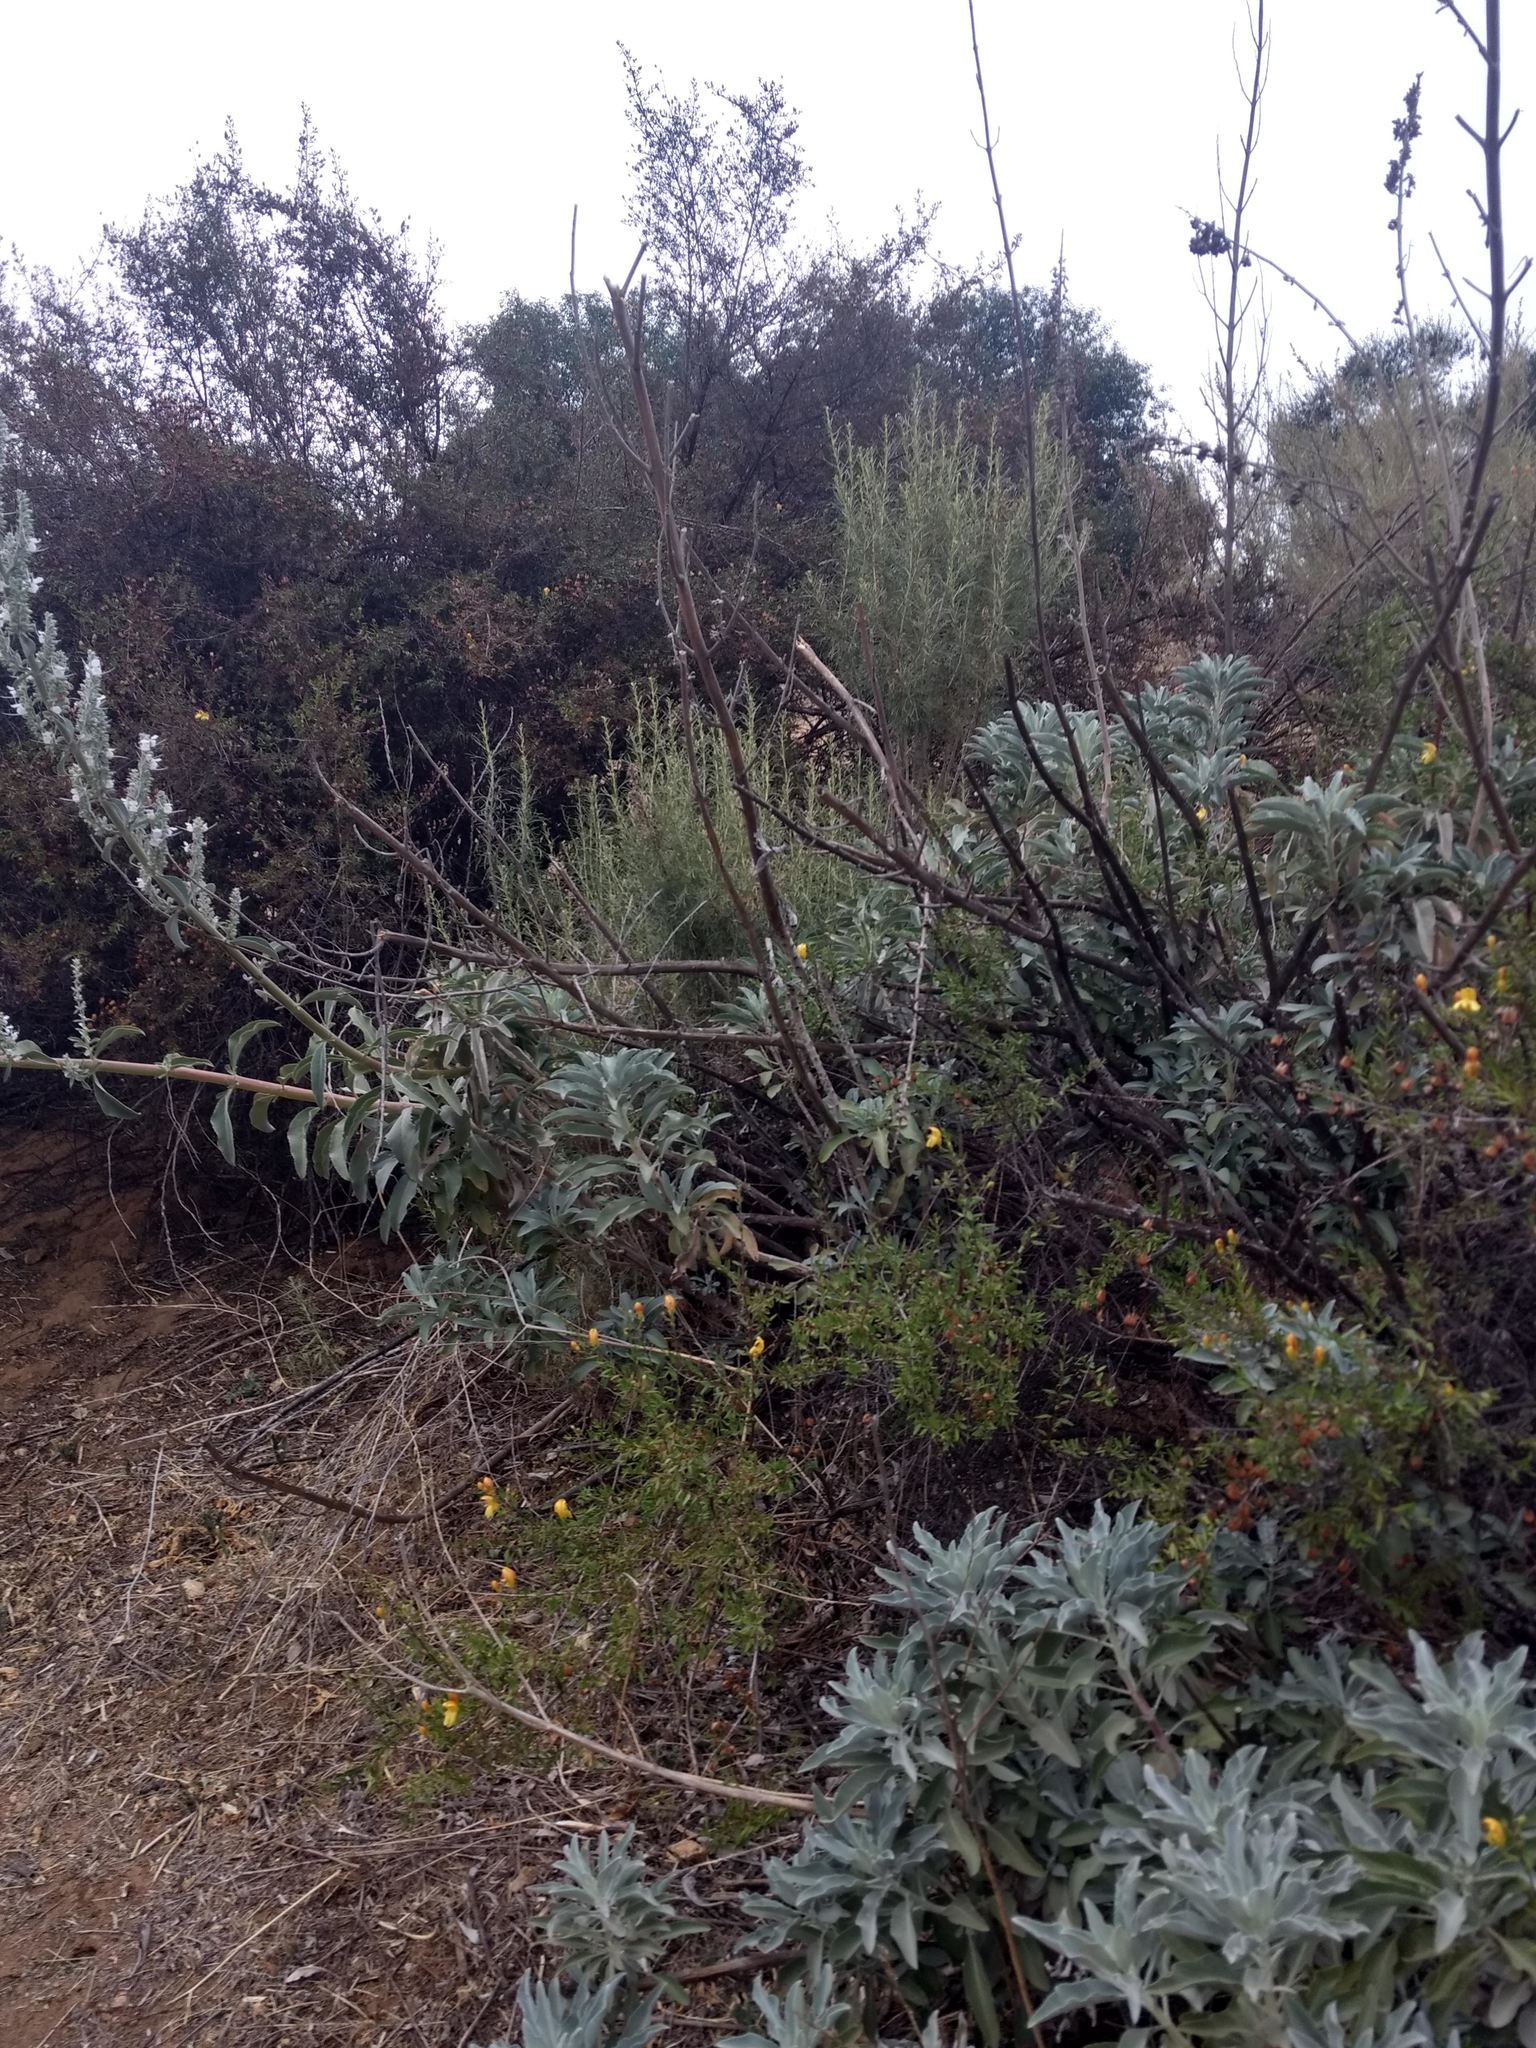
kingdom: Plantae
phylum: Tracheophyta
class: Magnoliopsida
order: Lamiales
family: Lamiaceae
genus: Salvia
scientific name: Salvia apiana
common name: White sage
